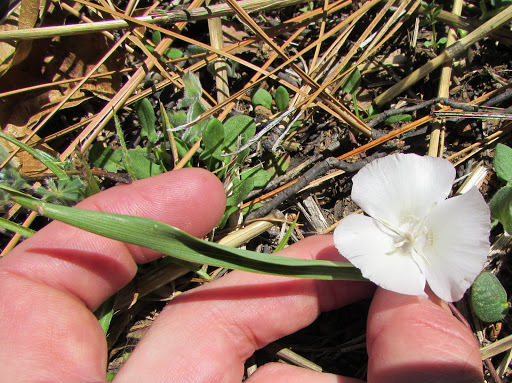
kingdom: Plantae
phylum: Tracheophyta
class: Liliopsida
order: Liliales
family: Liliaceae
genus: Calochortus
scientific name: Calochortus
